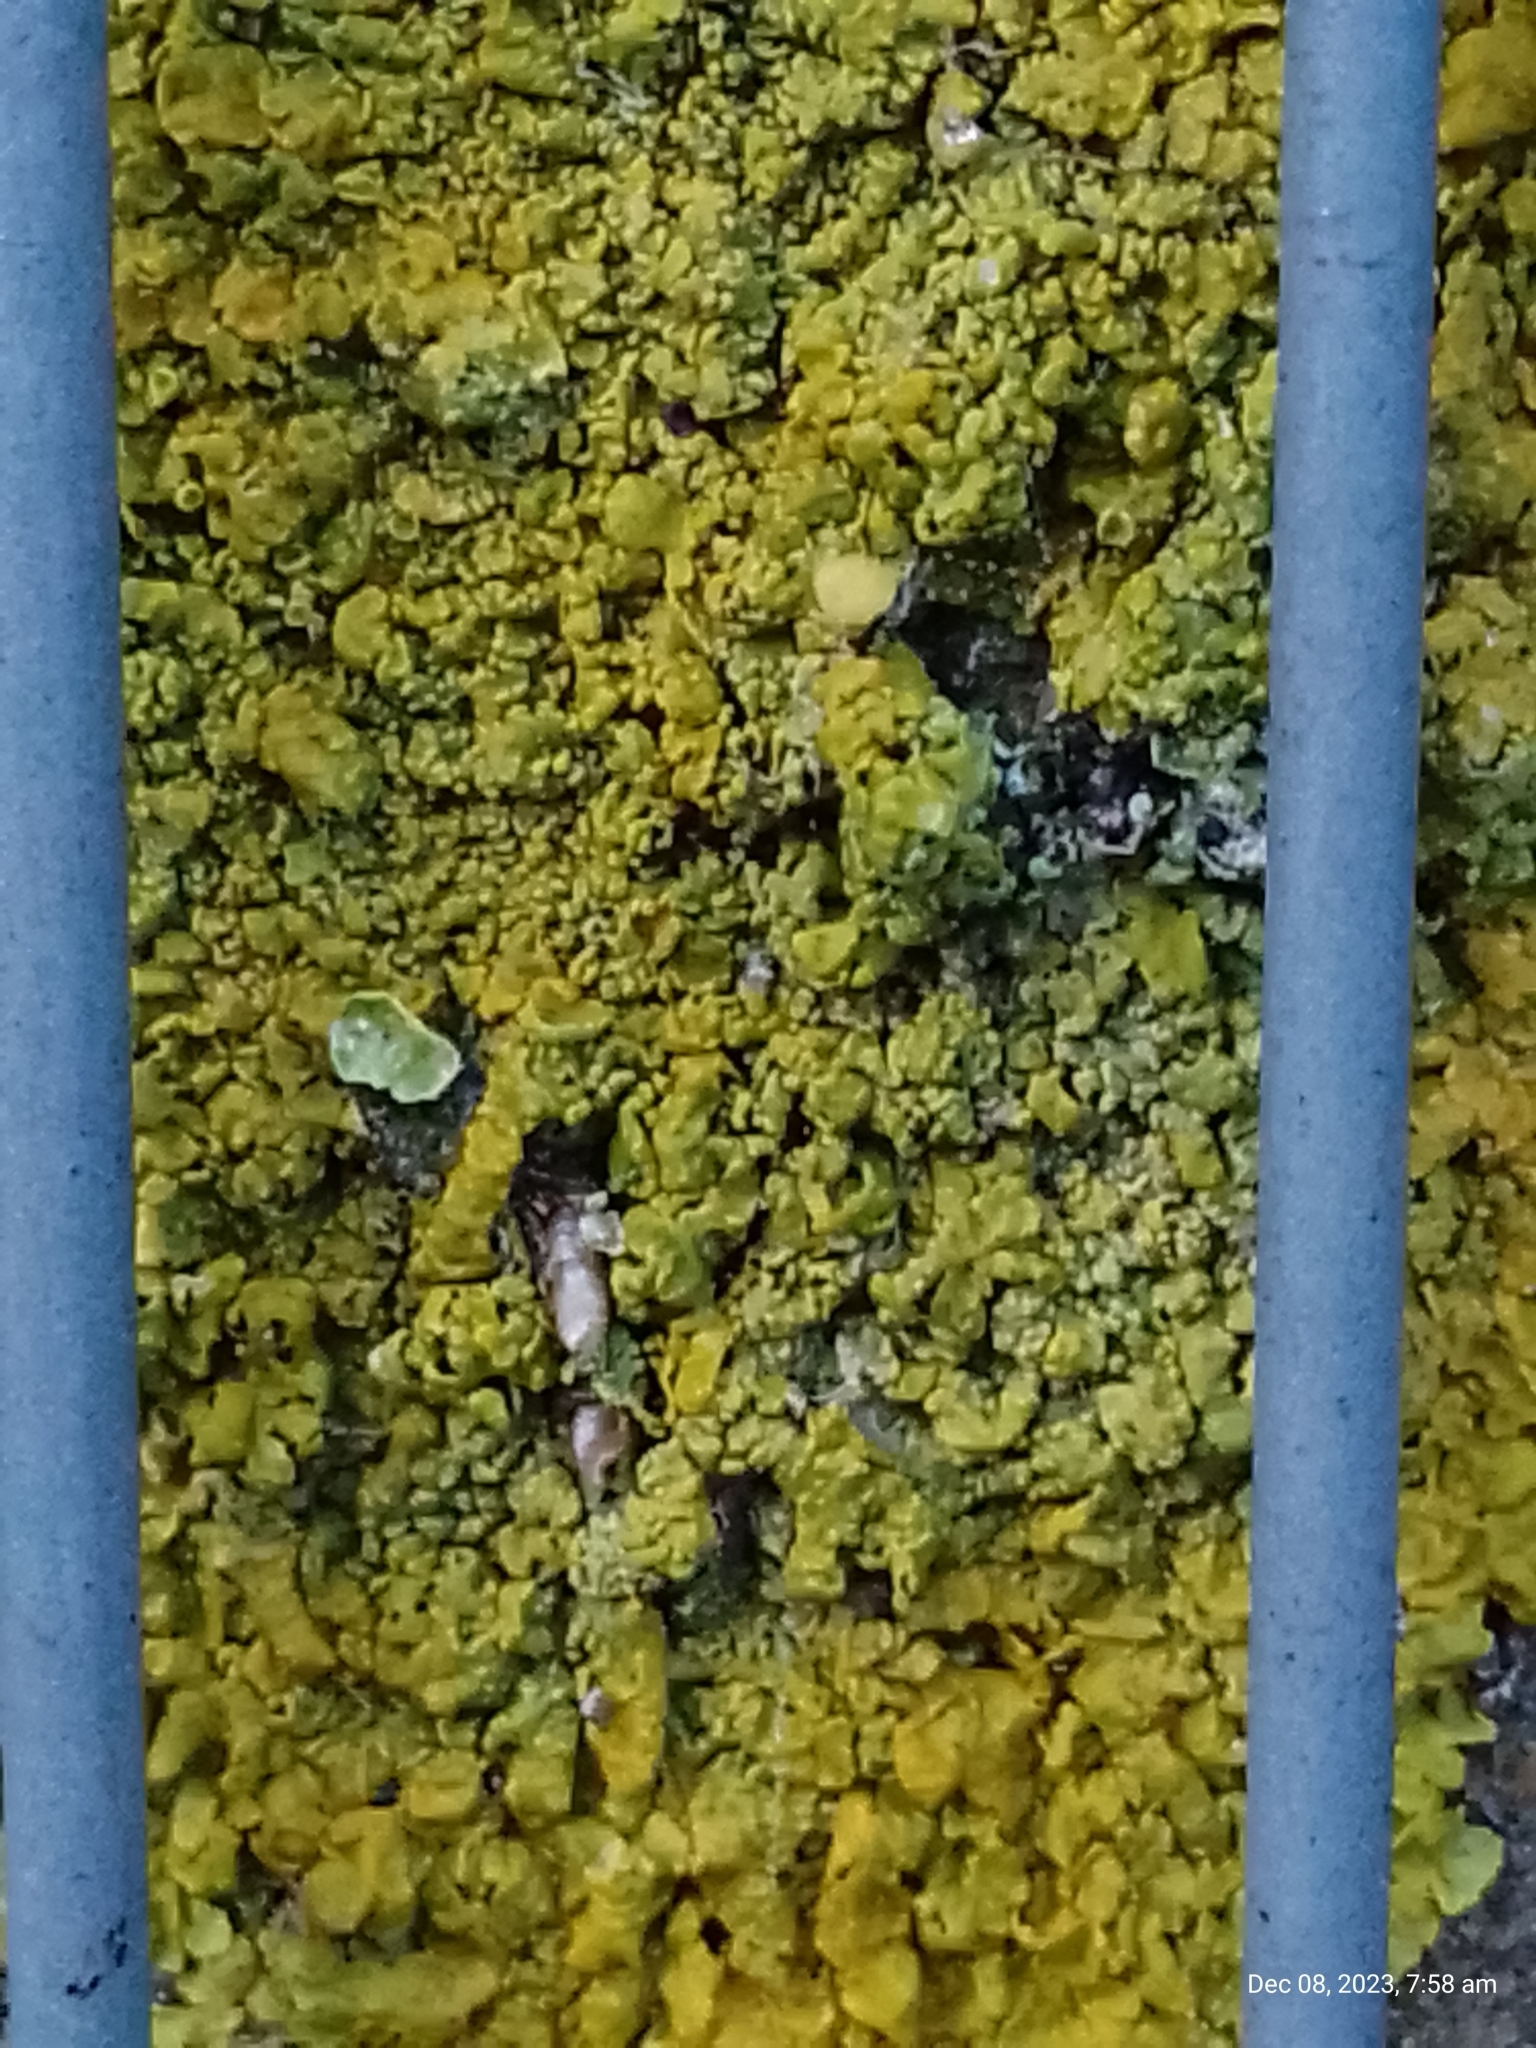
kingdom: Fungi
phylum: Ascomycota
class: Lecanoromycetes
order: Teloschistales
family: Teloschistaceae
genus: Xanthoria
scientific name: Xanthoria calcicola
